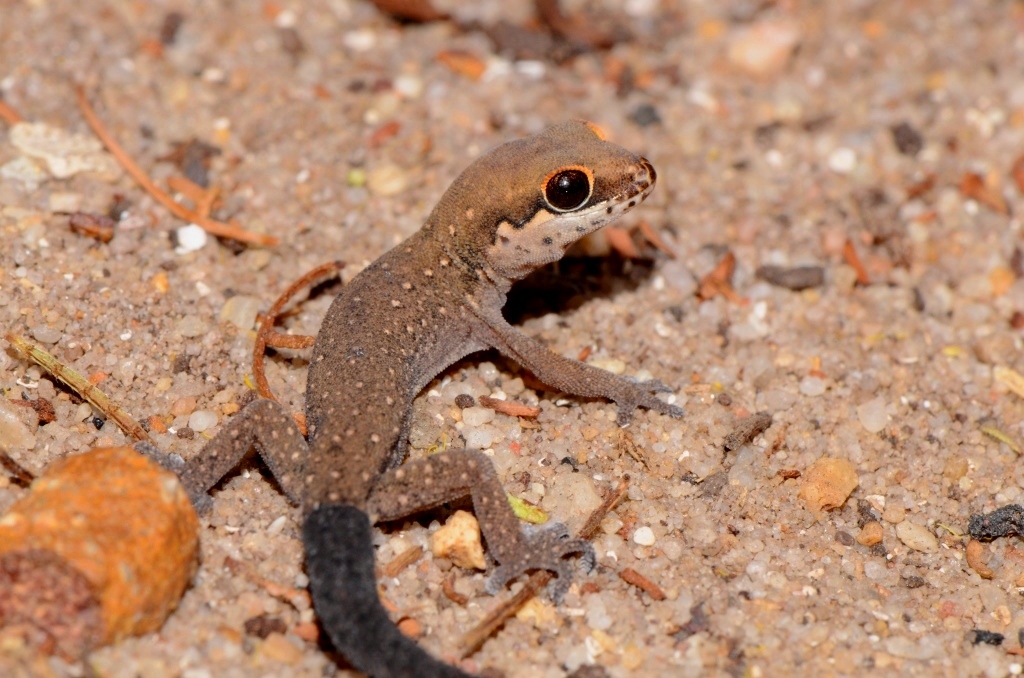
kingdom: Animalia
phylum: Chordata
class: Squamata
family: Gekkonidae
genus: Pachydactylus
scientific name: Pachydactylus geitje
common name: Ocellated thick-toed gecko
